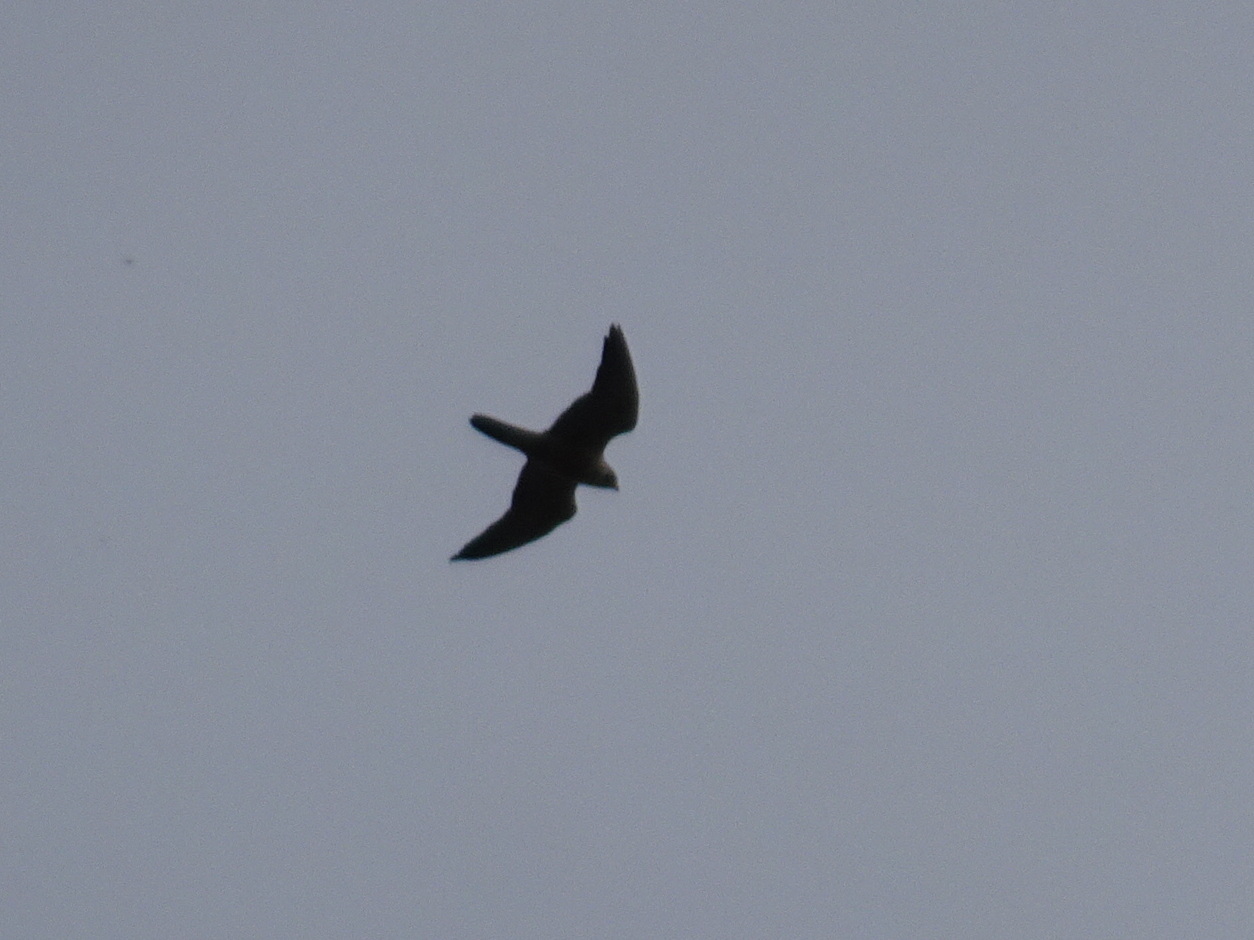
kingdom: Animalia
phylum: Chordata
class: Aves
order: Falconiformes
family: Falconidae
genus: Falco
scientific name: Falco peregrinus
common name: Peregrine falcon
